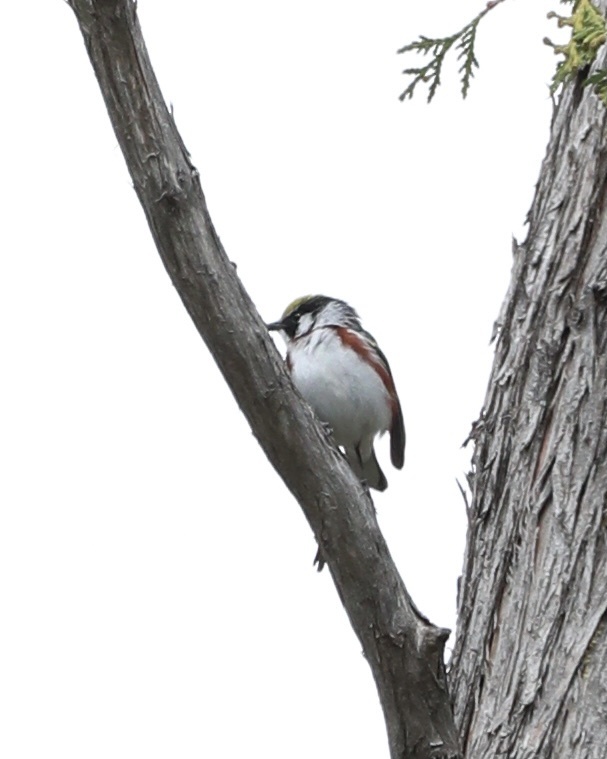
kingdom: Animalia
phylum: Chordata
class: Aves
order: Passeriformes
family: Parulidae
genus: Setophaga
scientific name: Setophaga pensylvanica
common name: Chestnut-sided warbler
